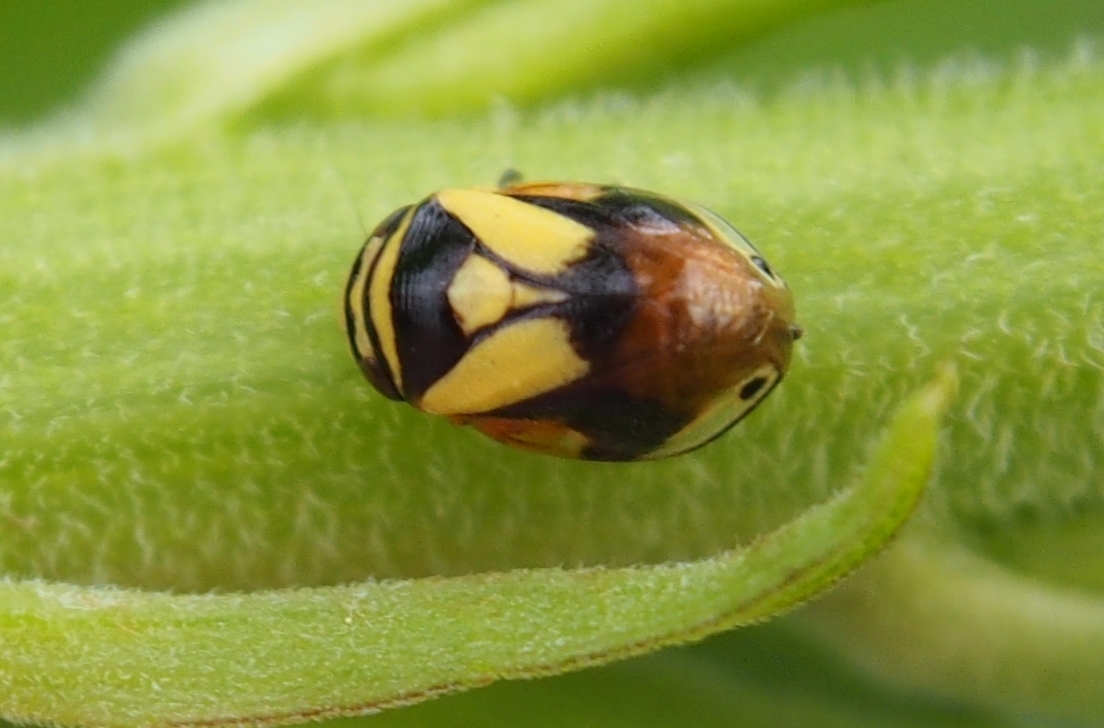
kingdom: Animalia
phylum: Arthropoda
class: Insecta
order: Hemiptera
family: Clastopteridae
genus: Clastoptera
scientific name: Clastoptera proteus
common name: Dogwood spittlebug
